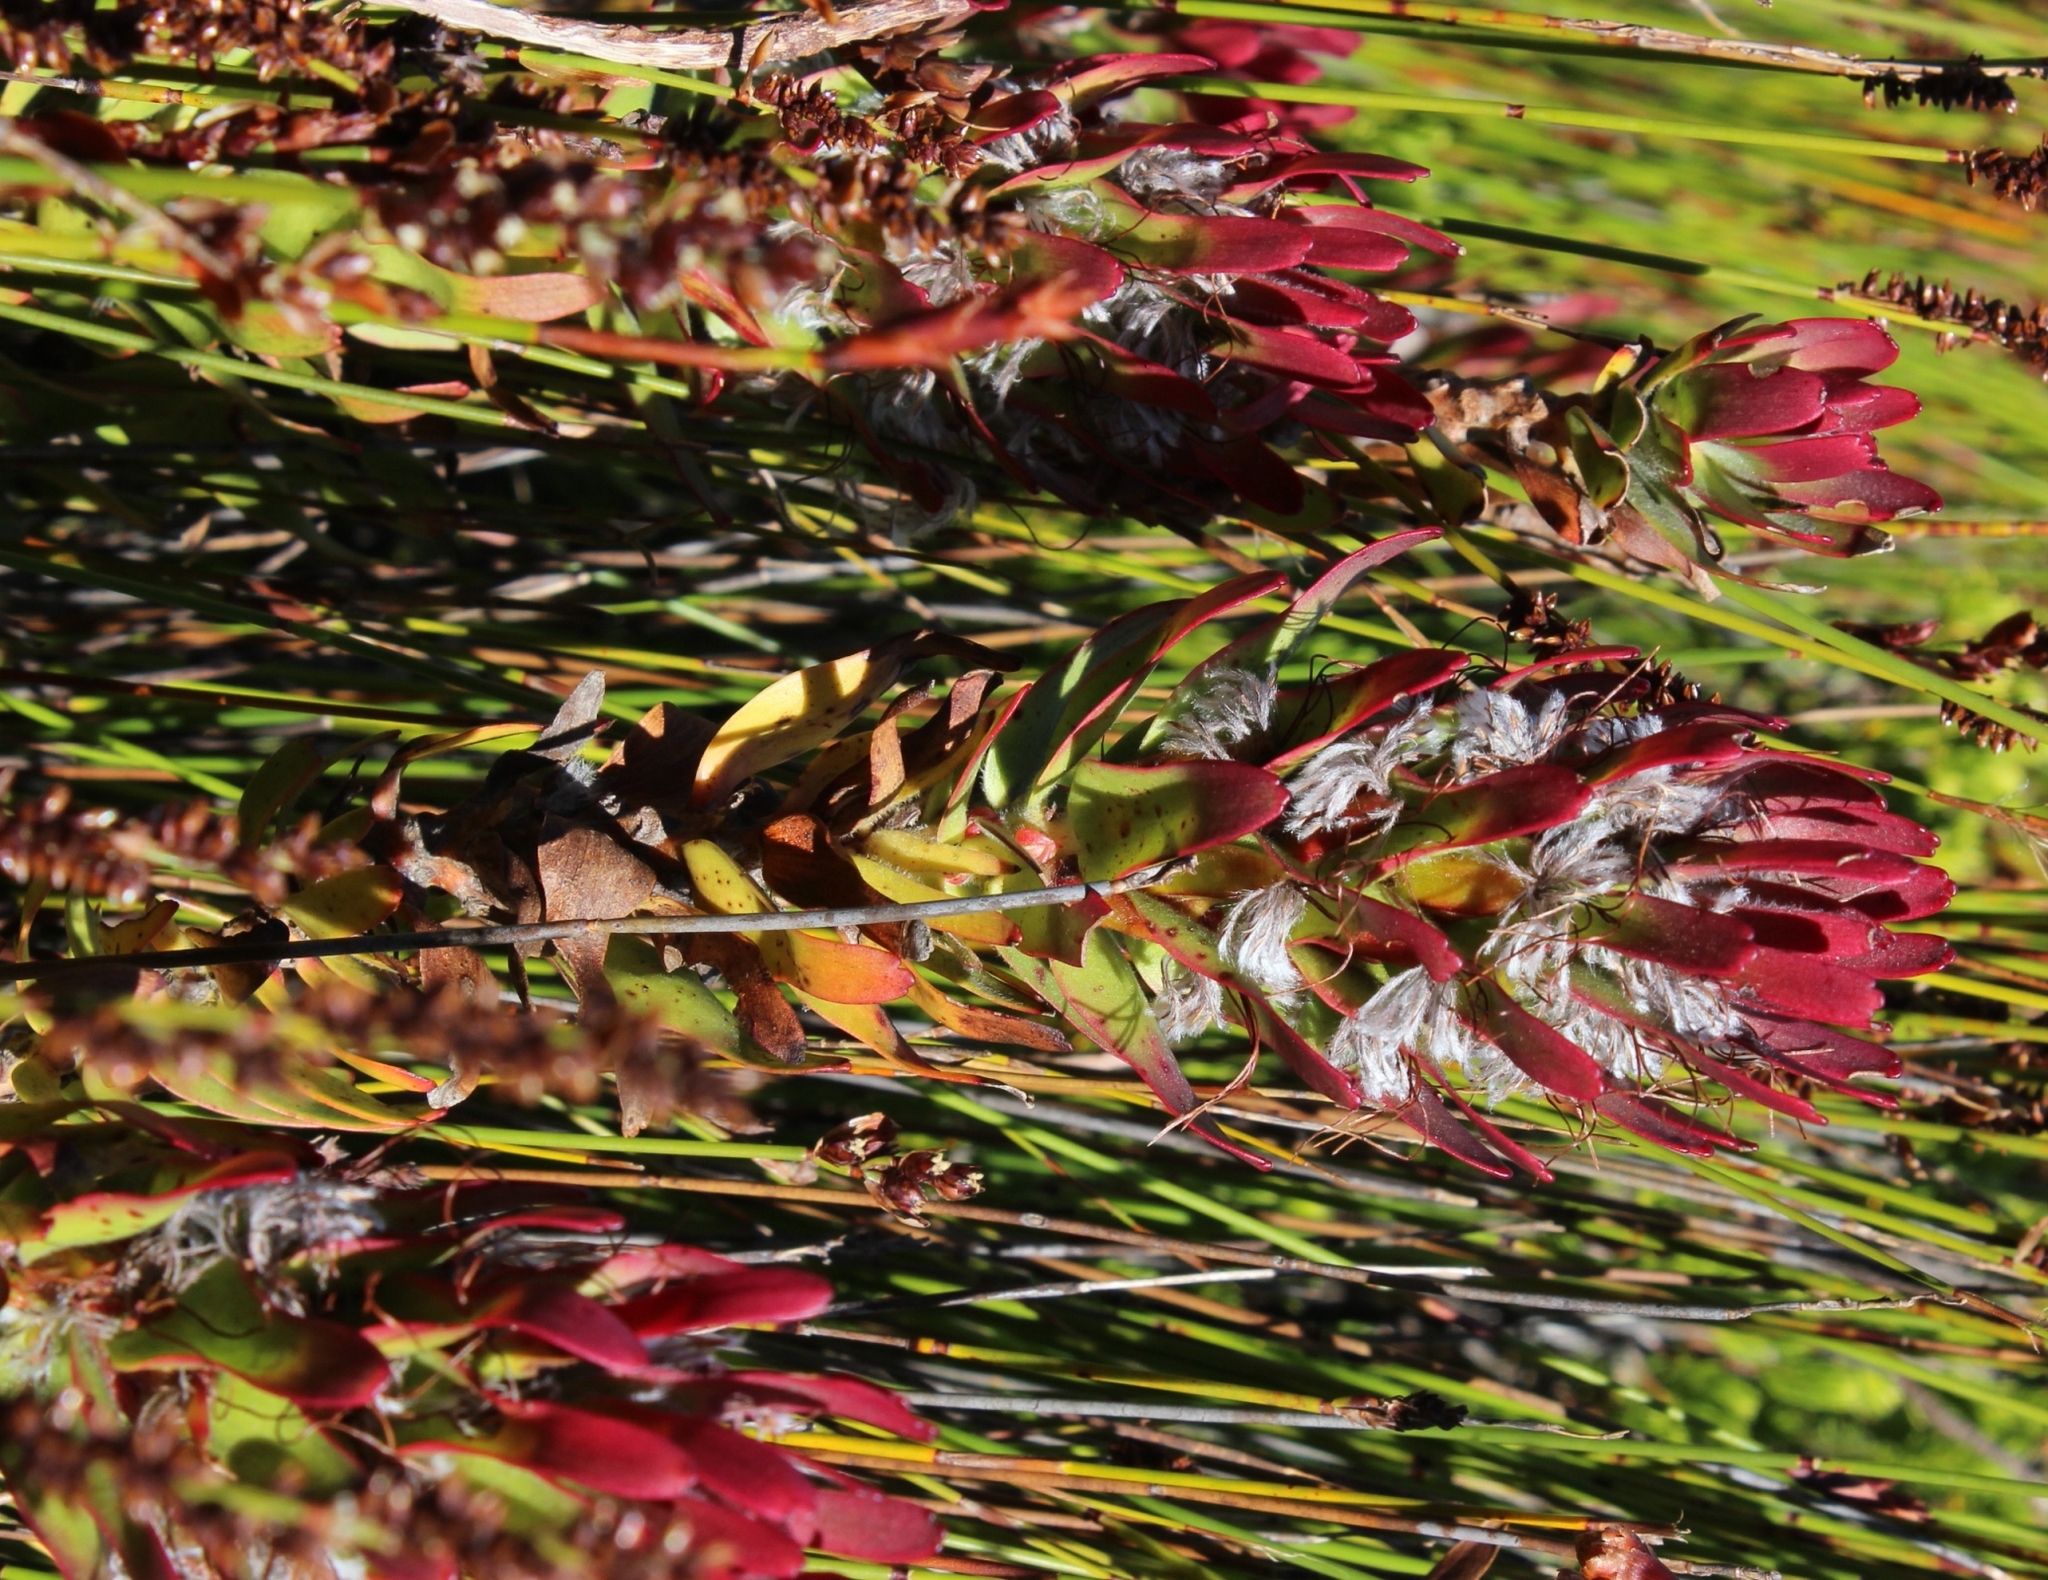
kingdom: Plantae
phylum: Tracheophyta
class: Magnoliopsida
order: Proteales
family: Proteaceae
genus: Mimetes
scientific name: Mimetes cucullatus
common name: Common pagoda
